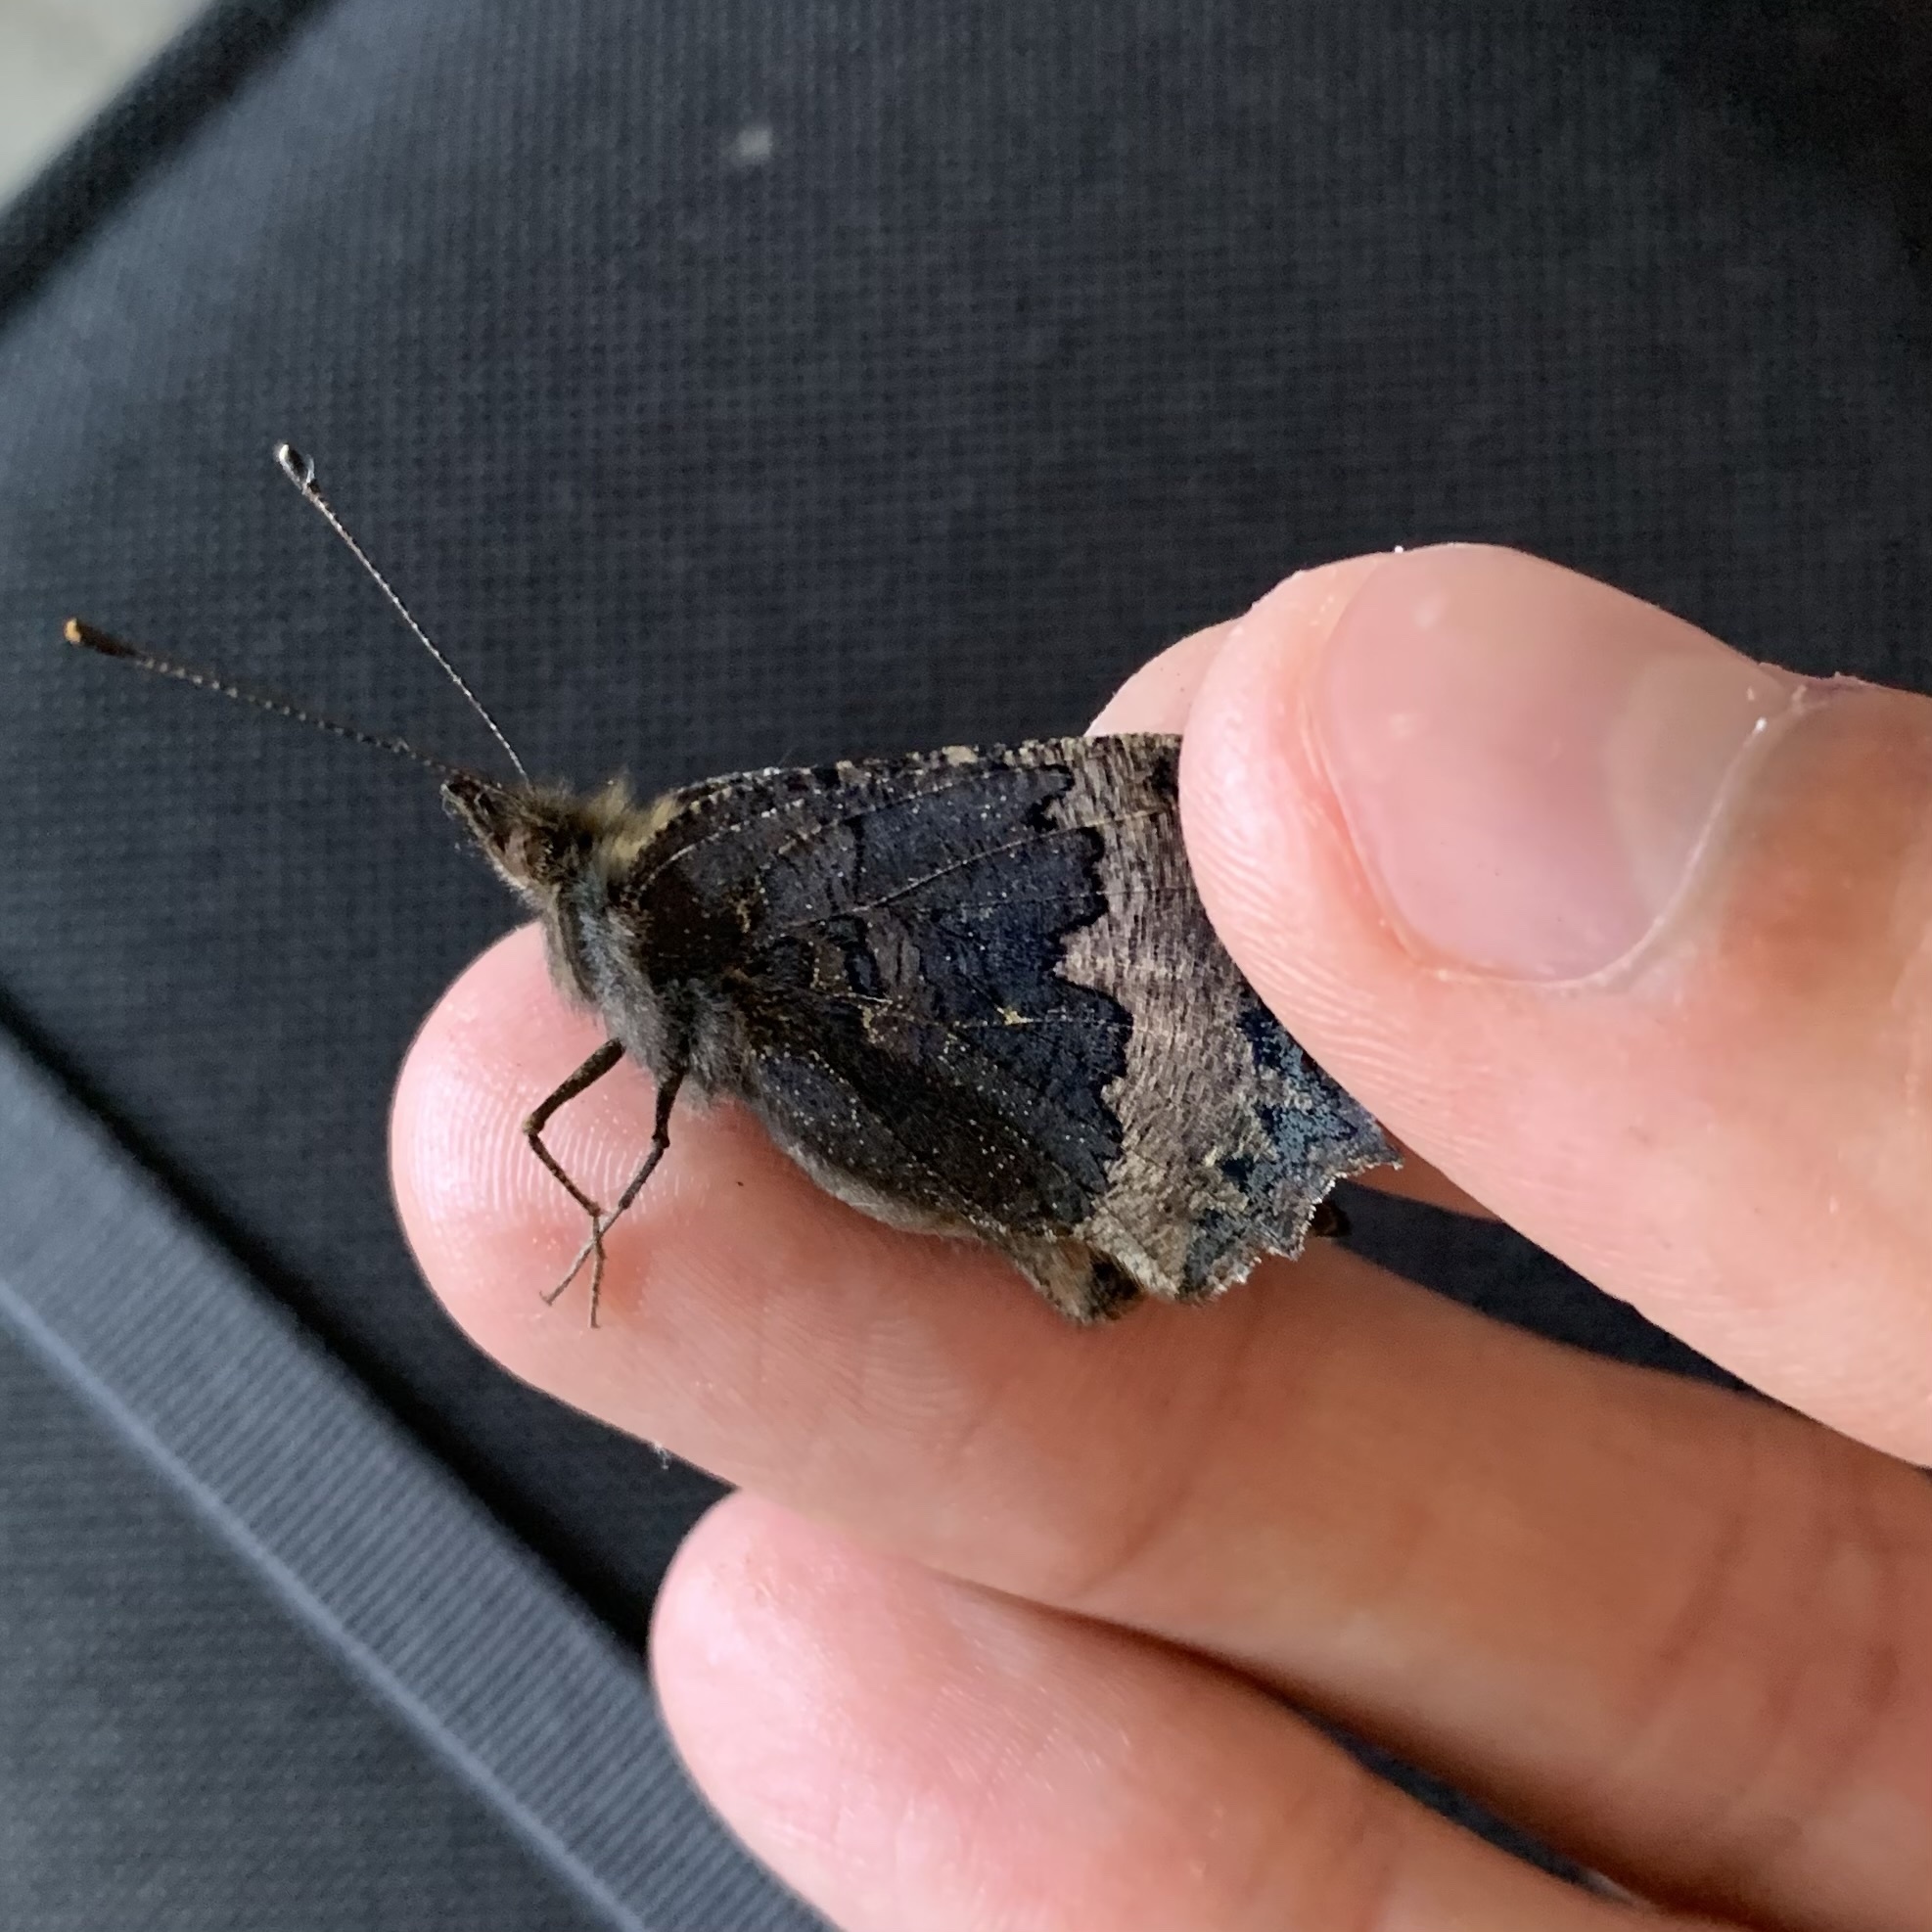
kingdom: Animalia
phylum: Arthropoda
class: Insecta
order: Lepidoptera
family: Nymphalidae
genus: Aglais
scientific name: Aglais urticae
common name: Small tortoiseshell
